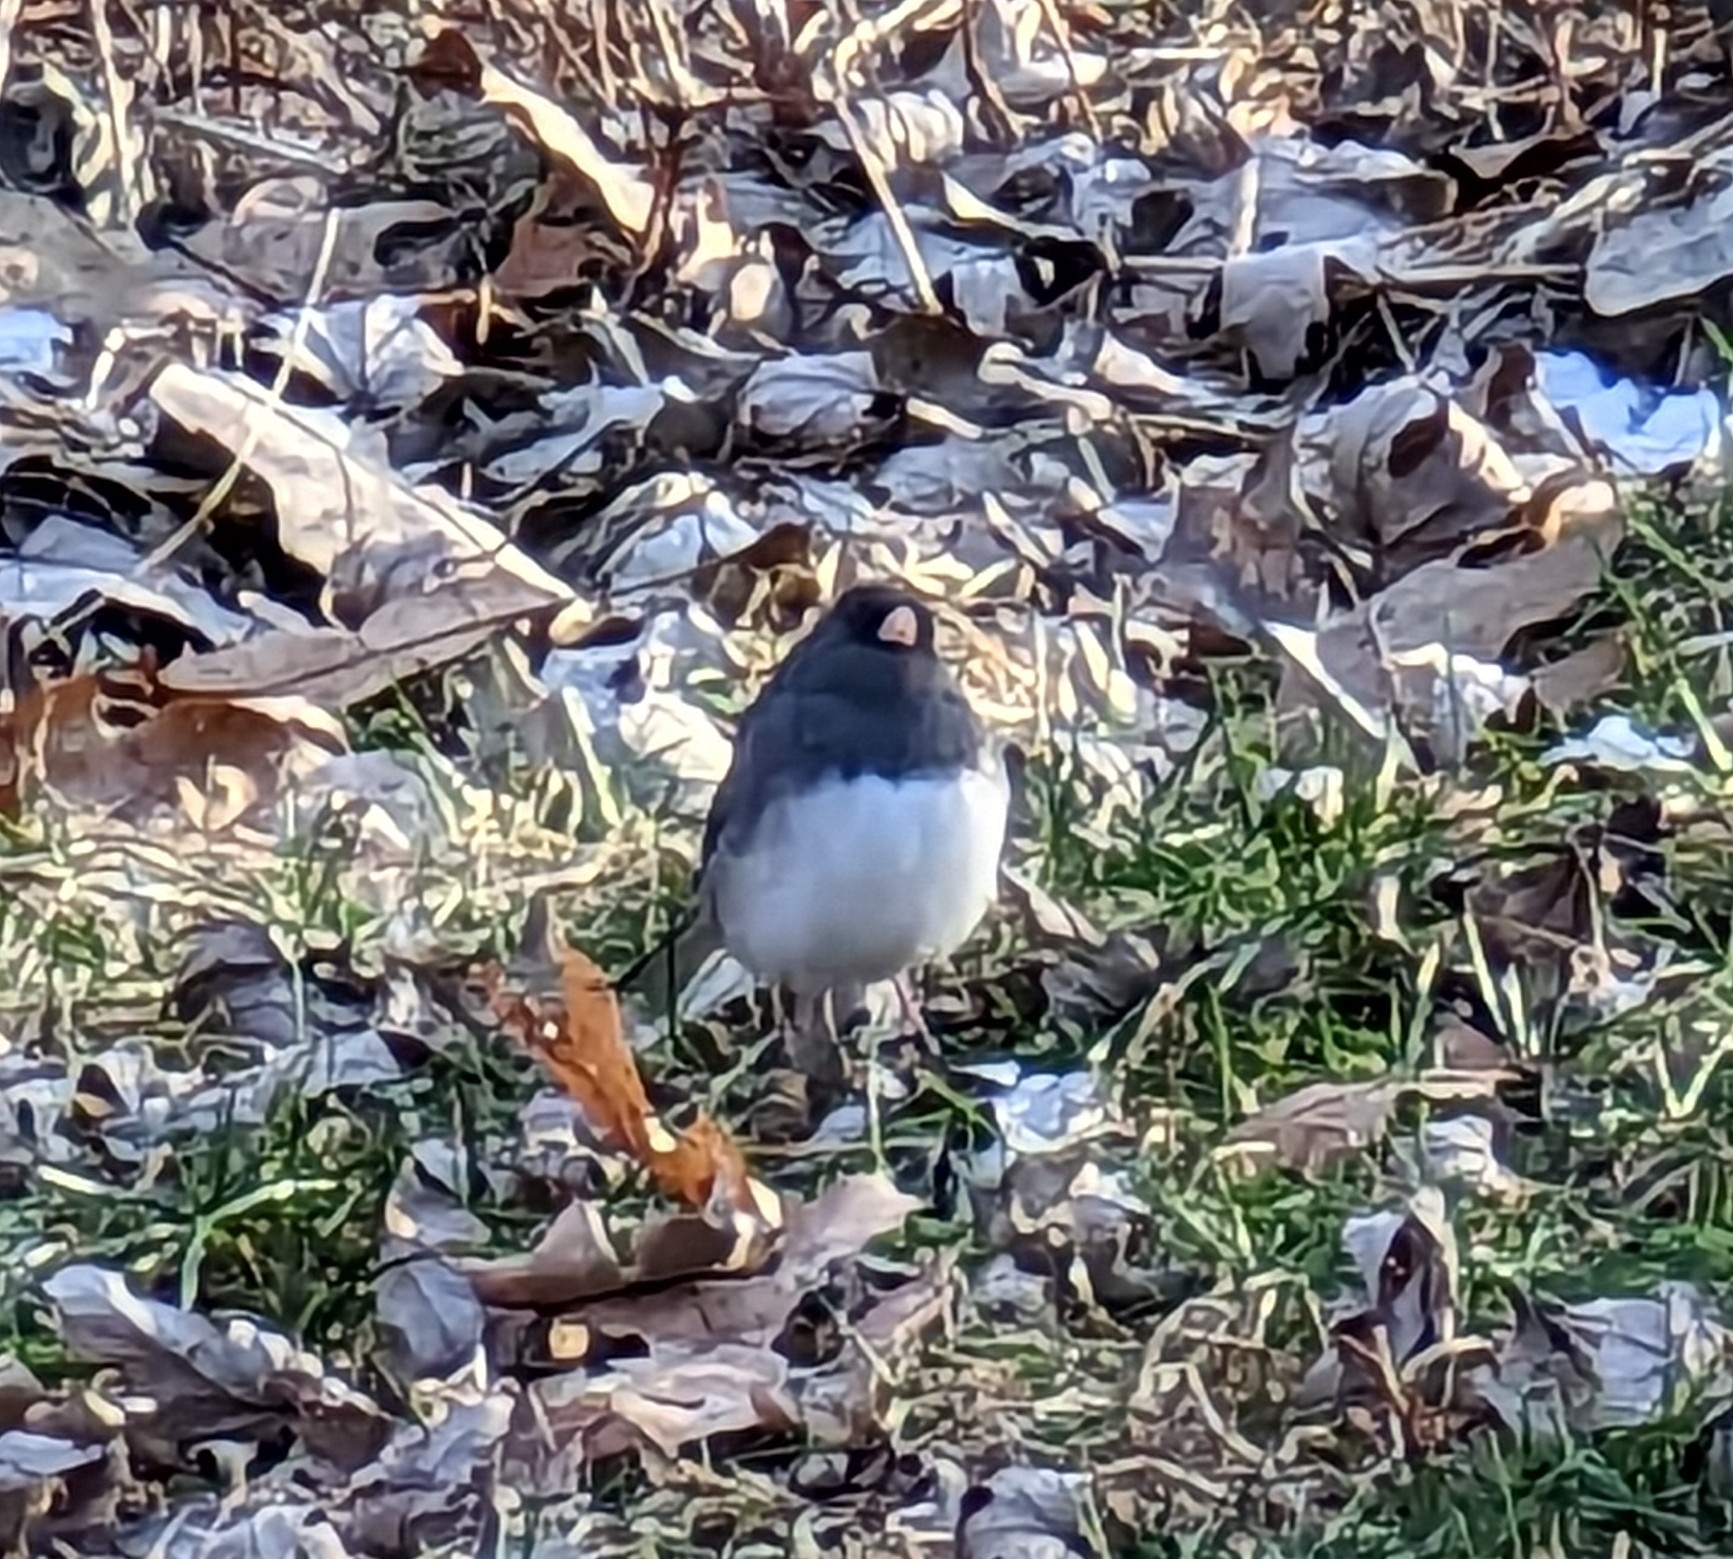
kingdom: Animalia
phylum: Chordata
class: Aves
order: Passeriformes
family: Passerellidae
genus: Junco
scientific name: Junco hyemalis
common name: Dark-eyed junco
